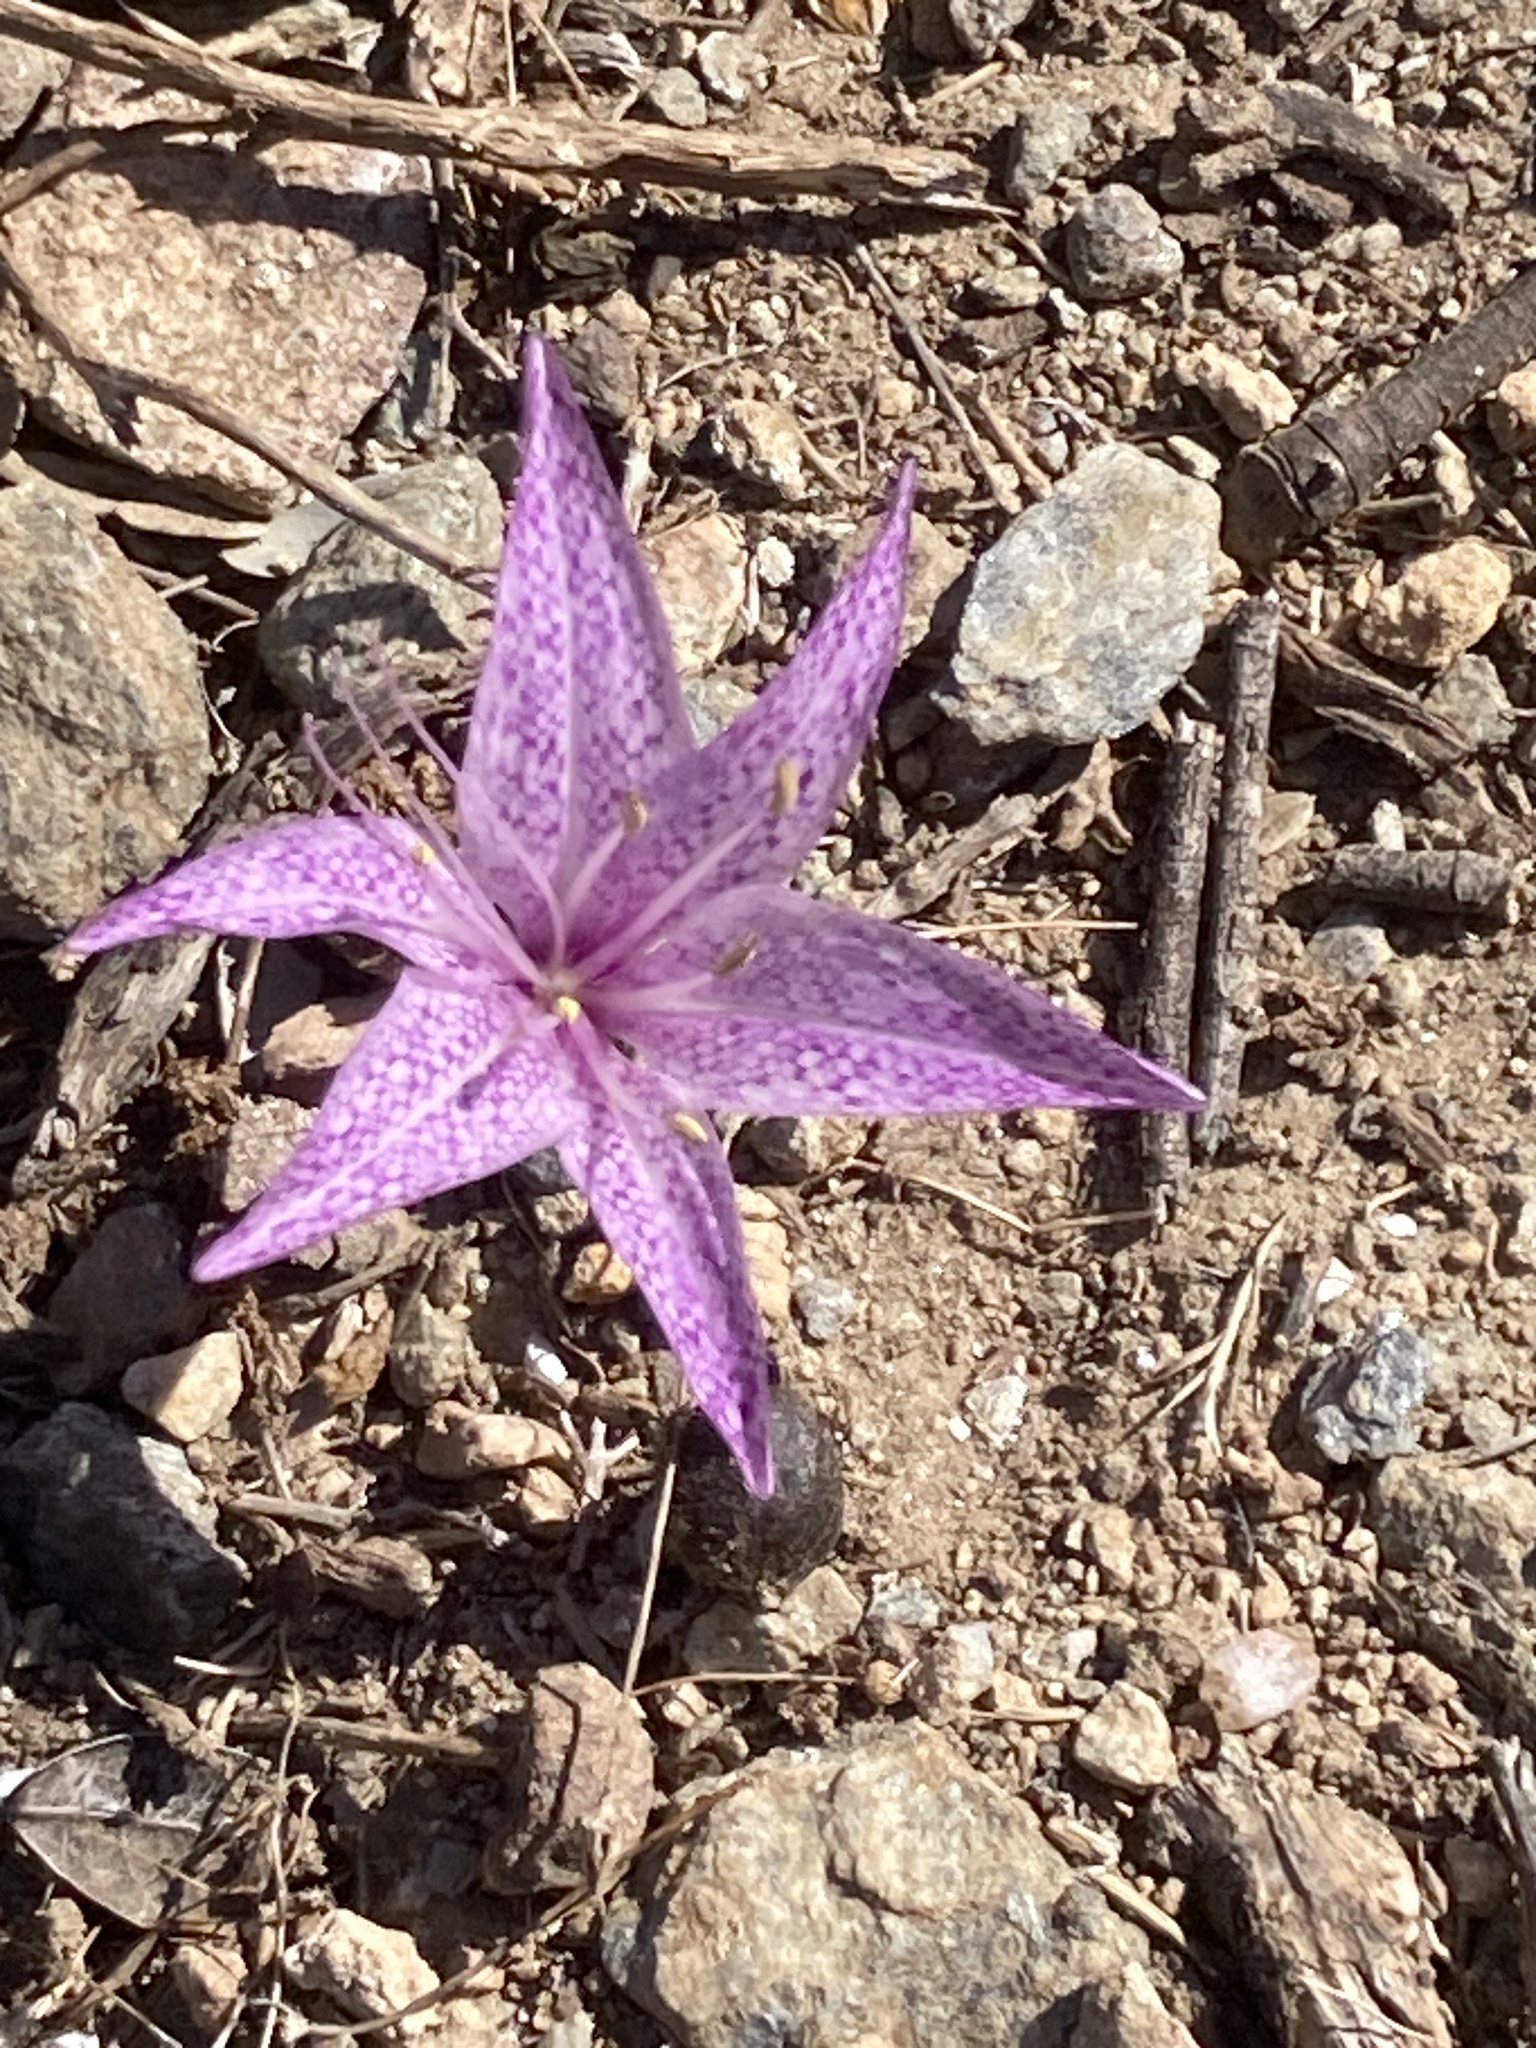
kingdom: Plantae
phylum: Tracheophyta
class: Liliopsida
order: Liliales
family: Colchicaceae
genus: Colchicum
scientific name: Colchicum variegatum
